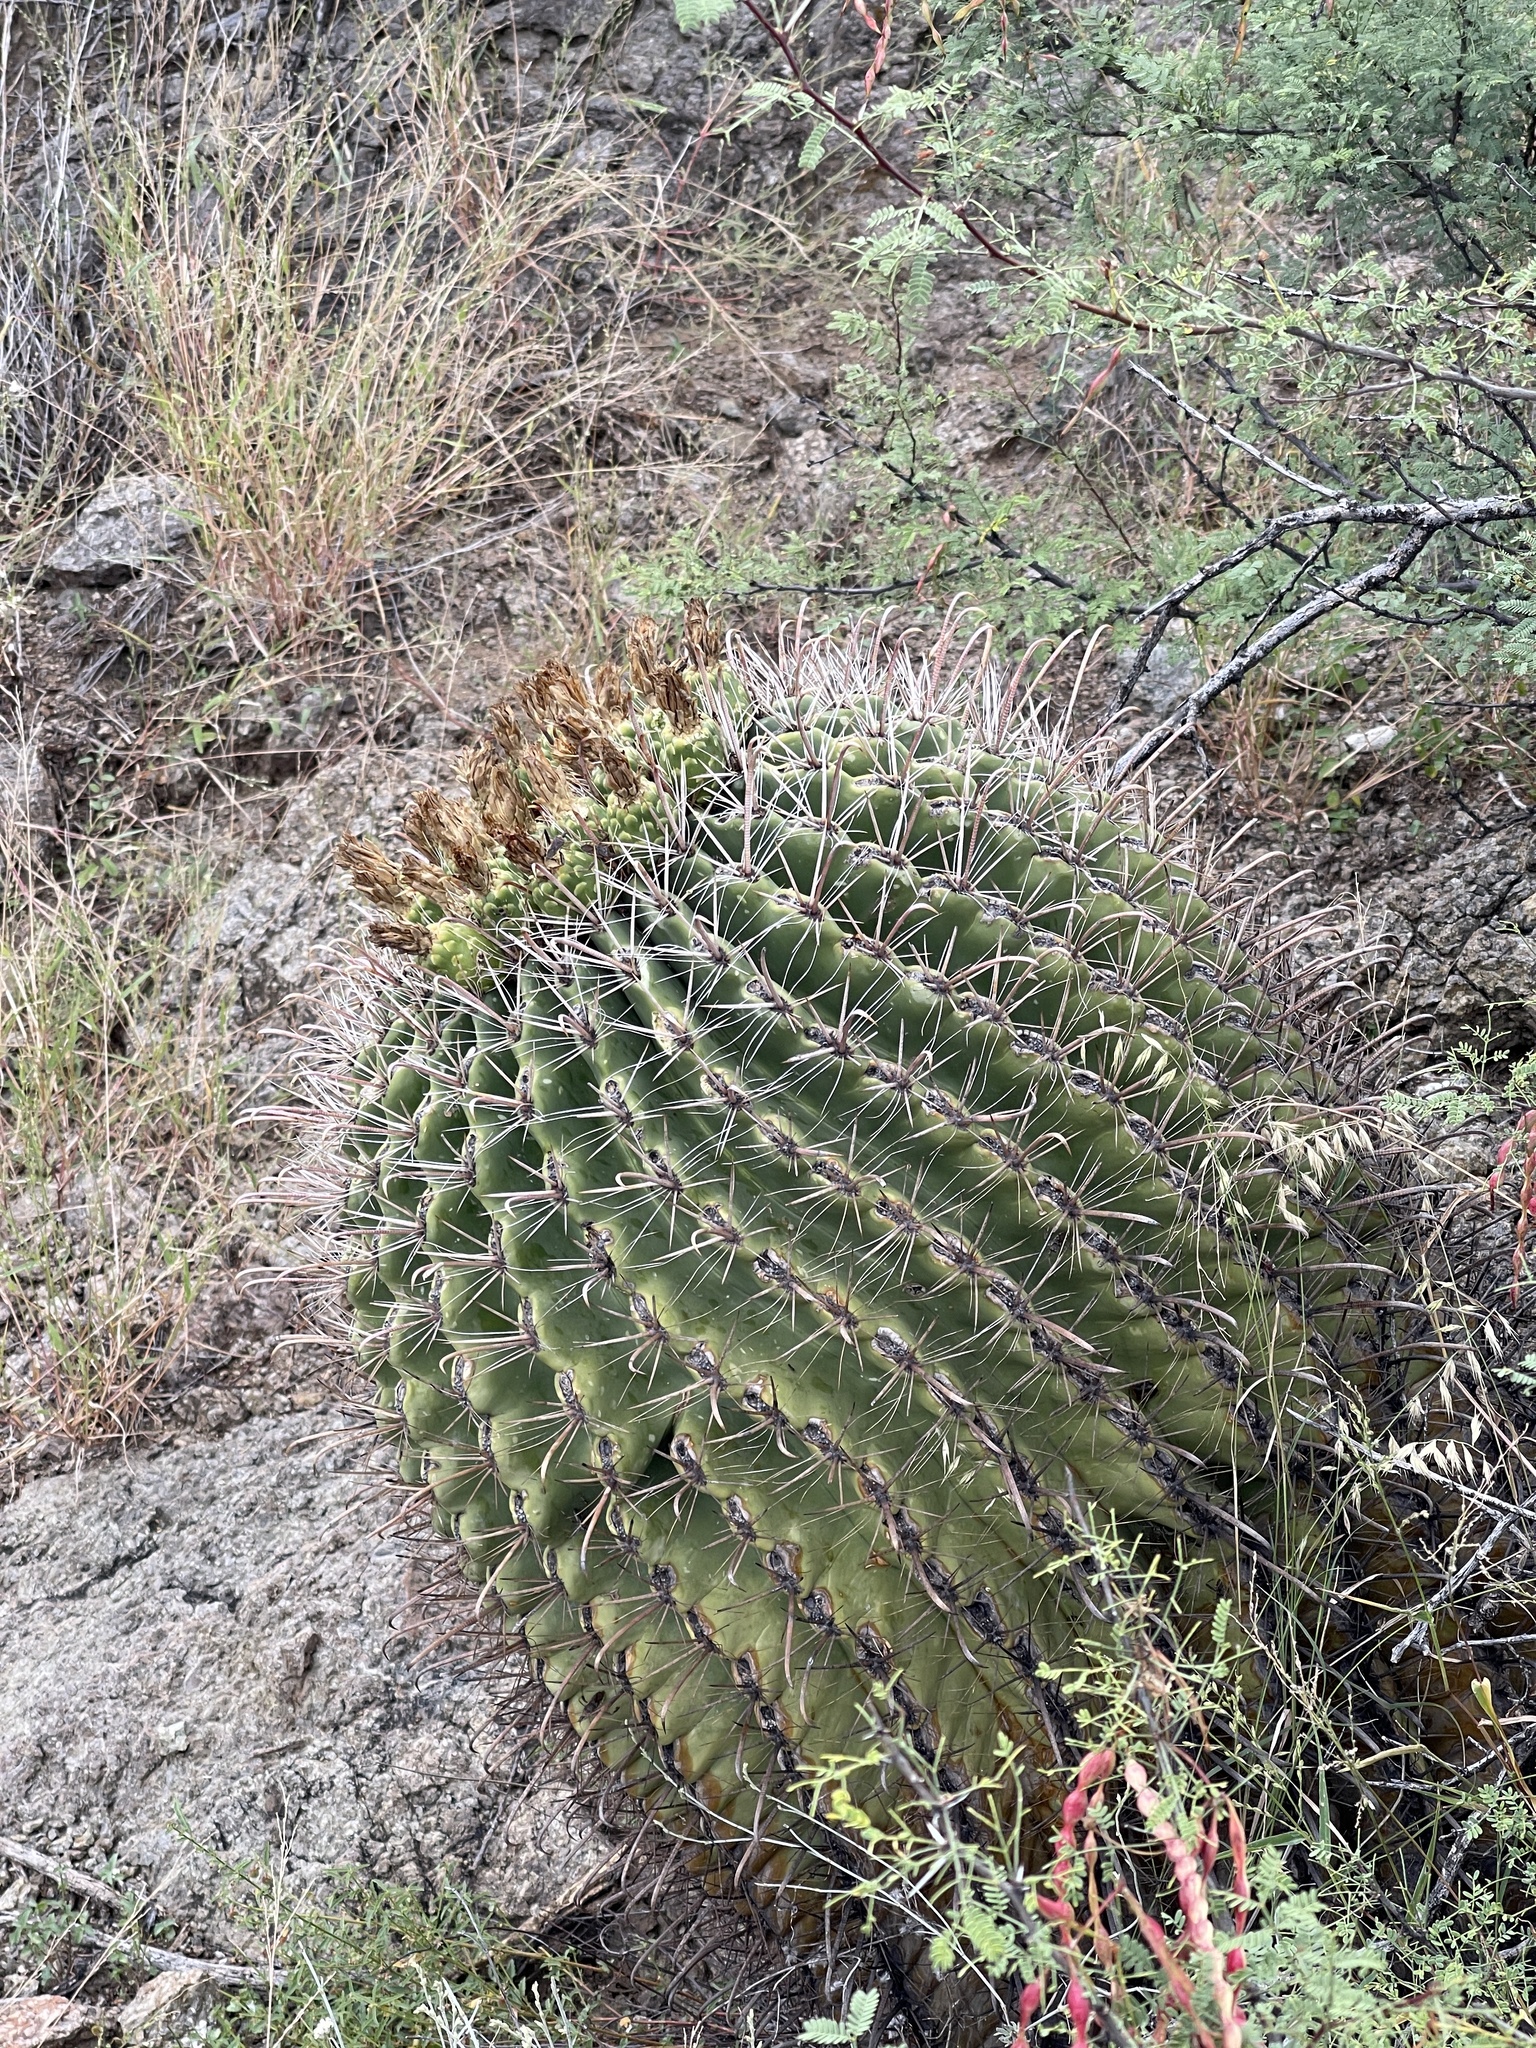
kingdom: Plantae
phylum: Tracheophyta
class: Magnoliopsida
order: Caryophyllales
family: Cactaceae
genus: Ferocactus
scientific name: Ferocactus wislizeni
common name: Candy barrel cactus
